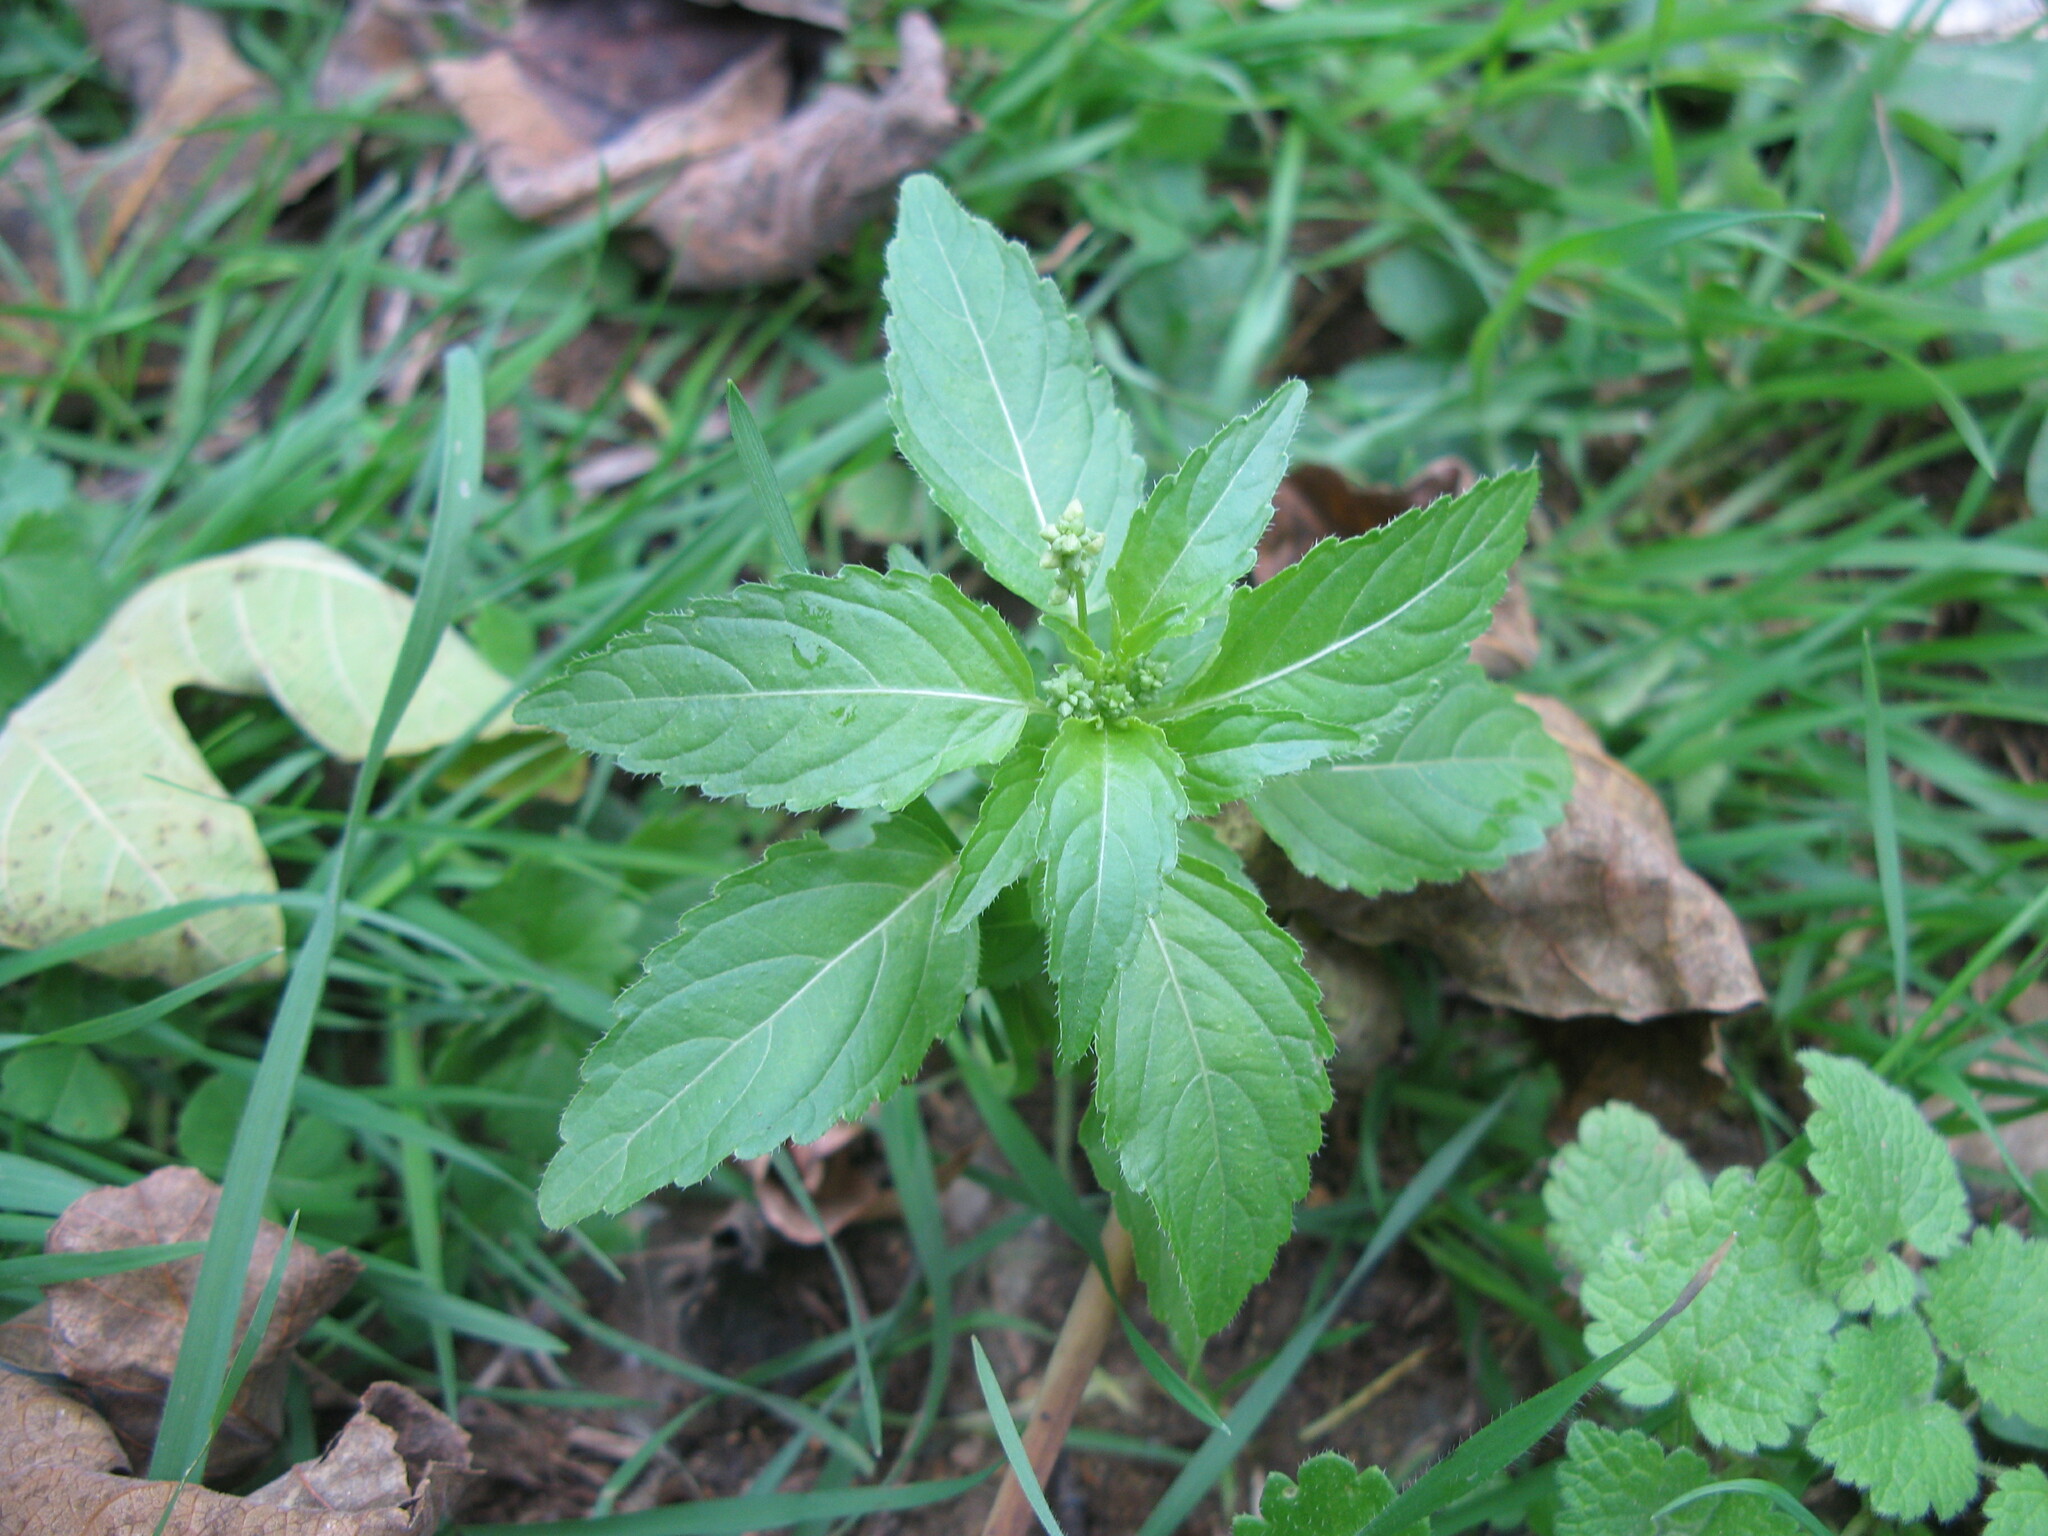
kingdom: Plantae
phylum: Tracheophyta
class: Magnoliopsida
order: Malpighiales
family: Euphorbiaceae
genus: Mercurialis
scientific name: Mercurialis annua
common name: Annual mercury
